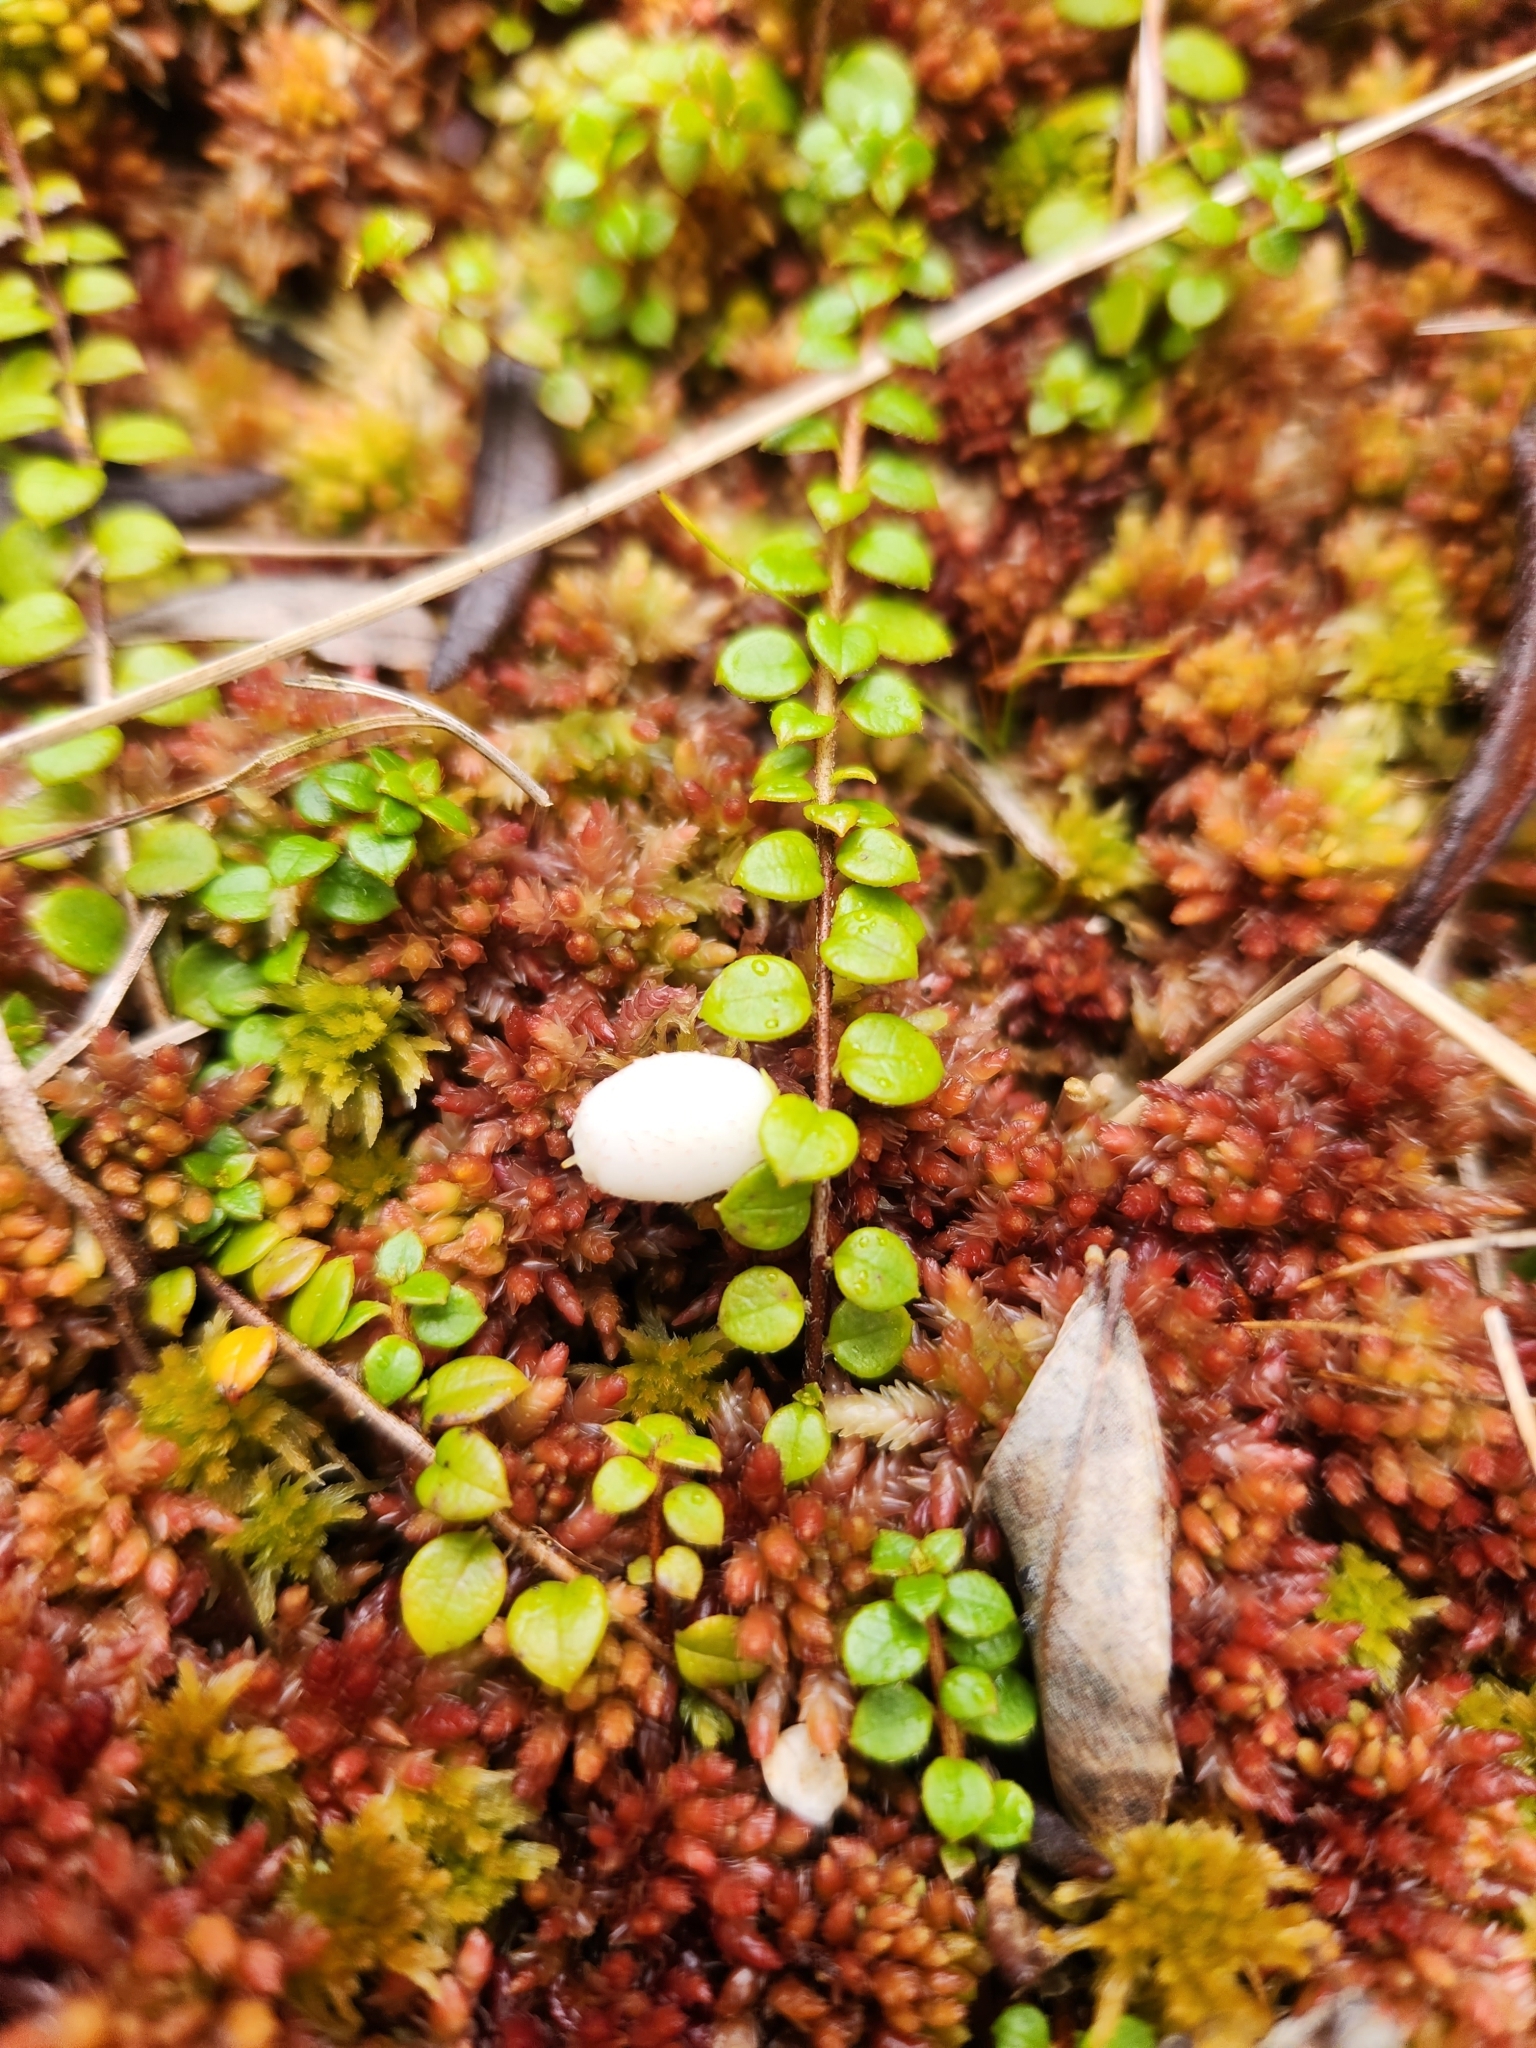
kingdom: Plantae
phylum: Tracheophyta
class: Magnoliopsida
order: Ericales
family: Ericaceae
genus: Gaultheria
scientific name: Gaultheria hispidula
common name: Cancer wintergreen
